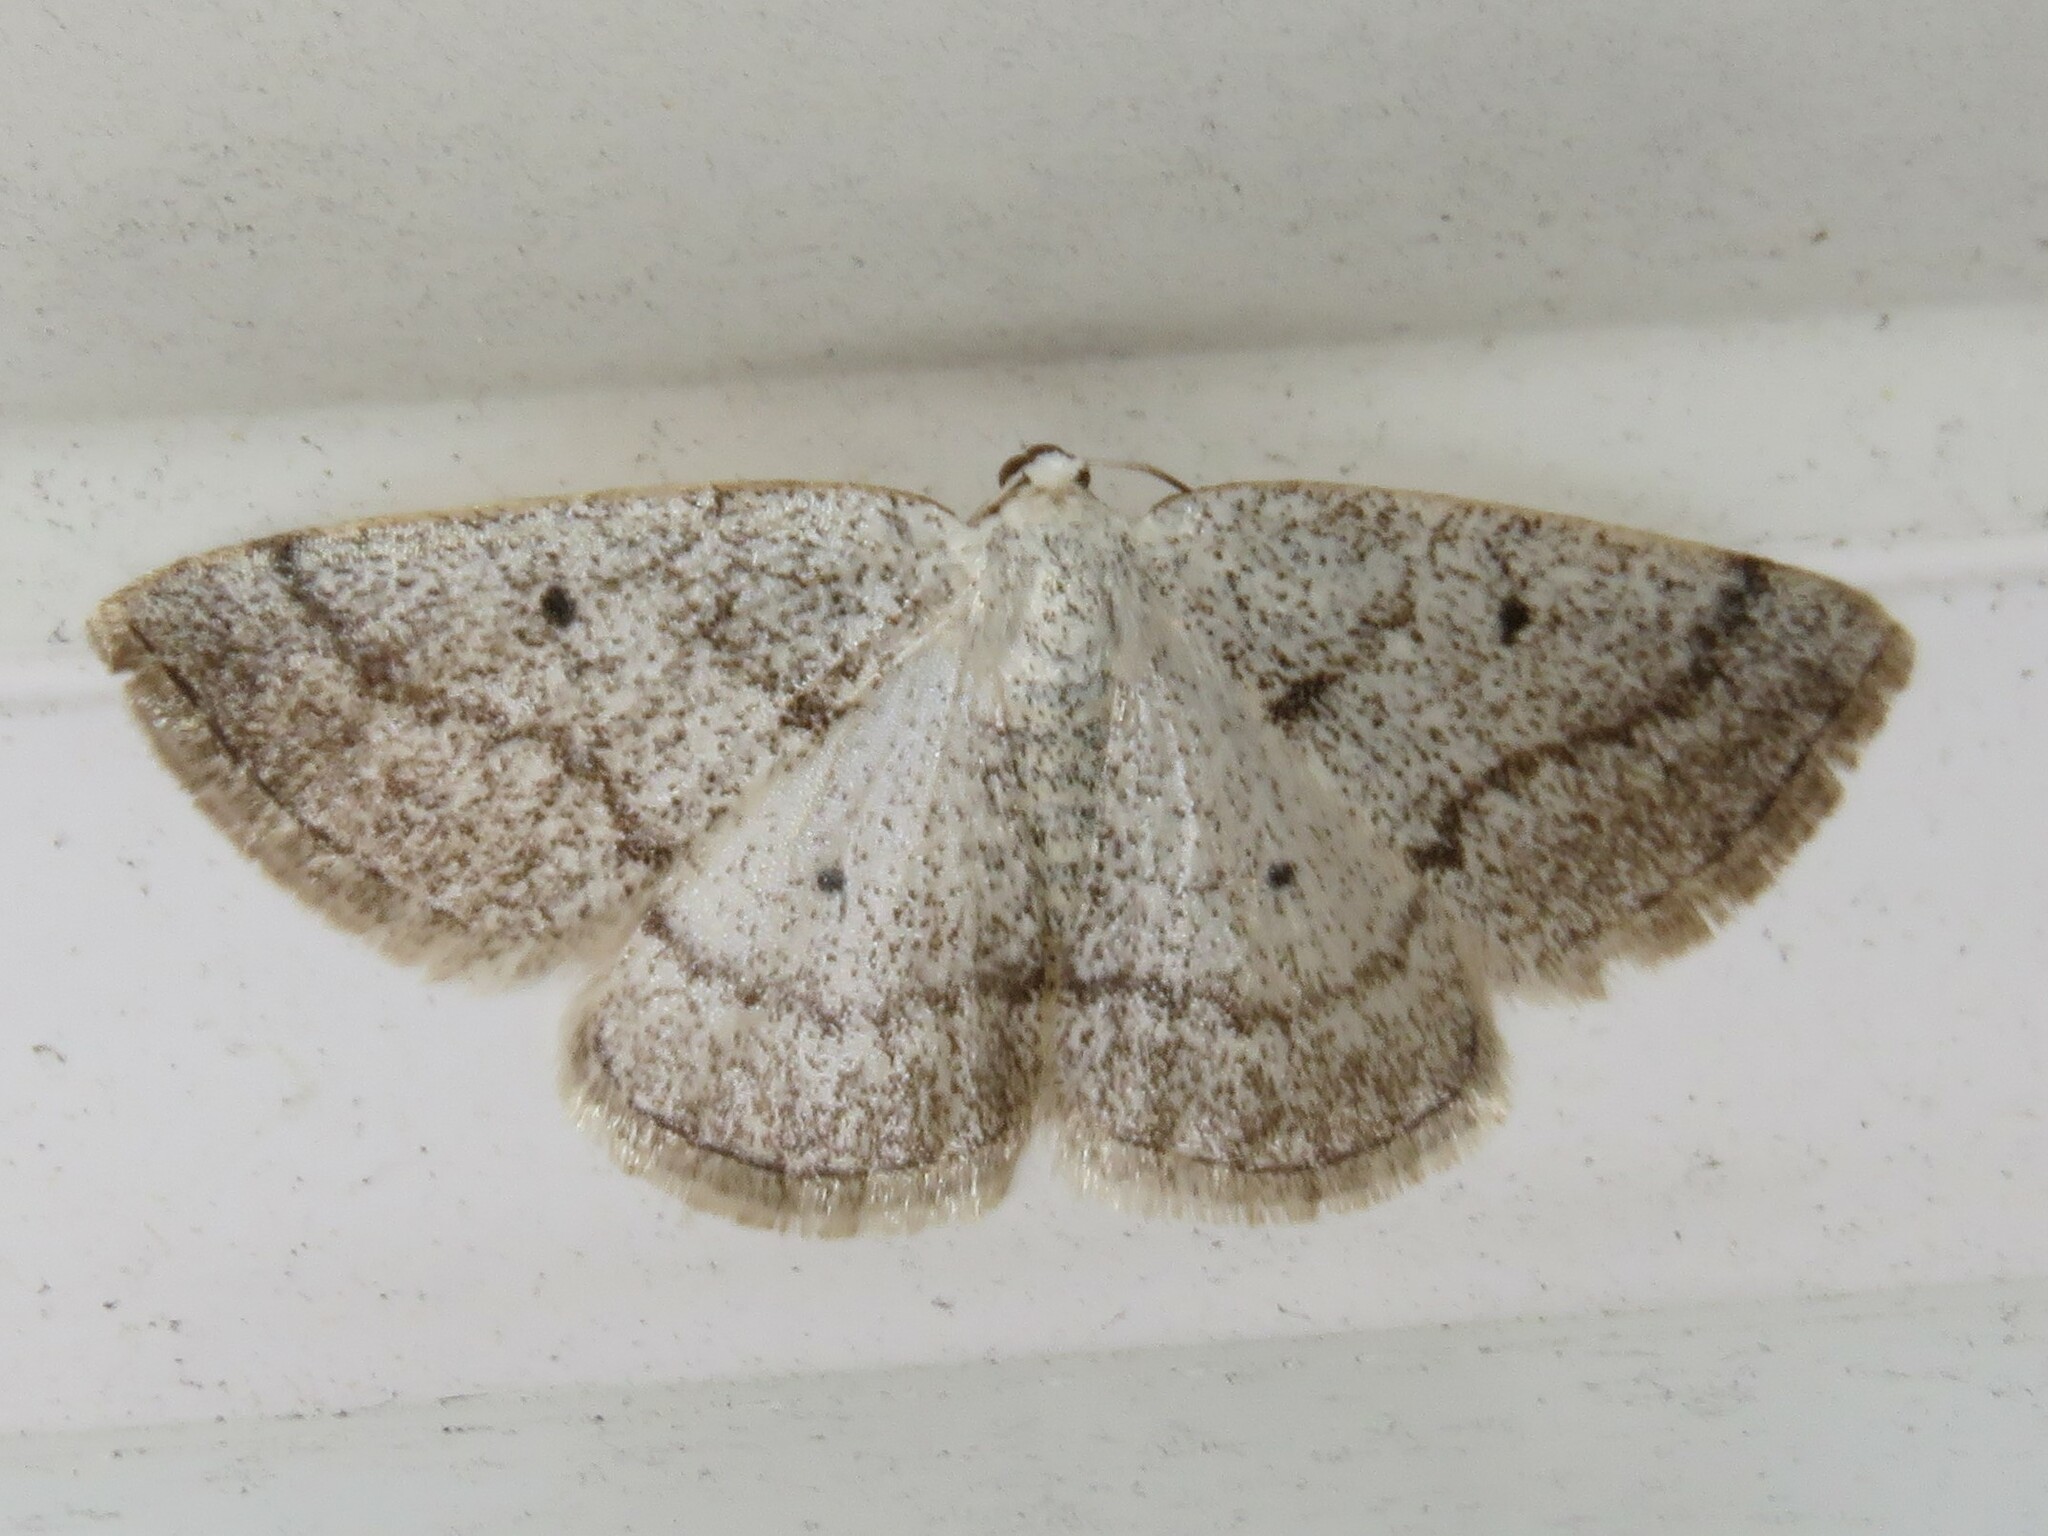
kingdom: Animalia
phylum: Arthropoda
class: Insecta
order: Lepidoptera
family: Geometridae
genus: Lomographa
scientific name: Lomographa glomeraria
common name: Gray spring moth
